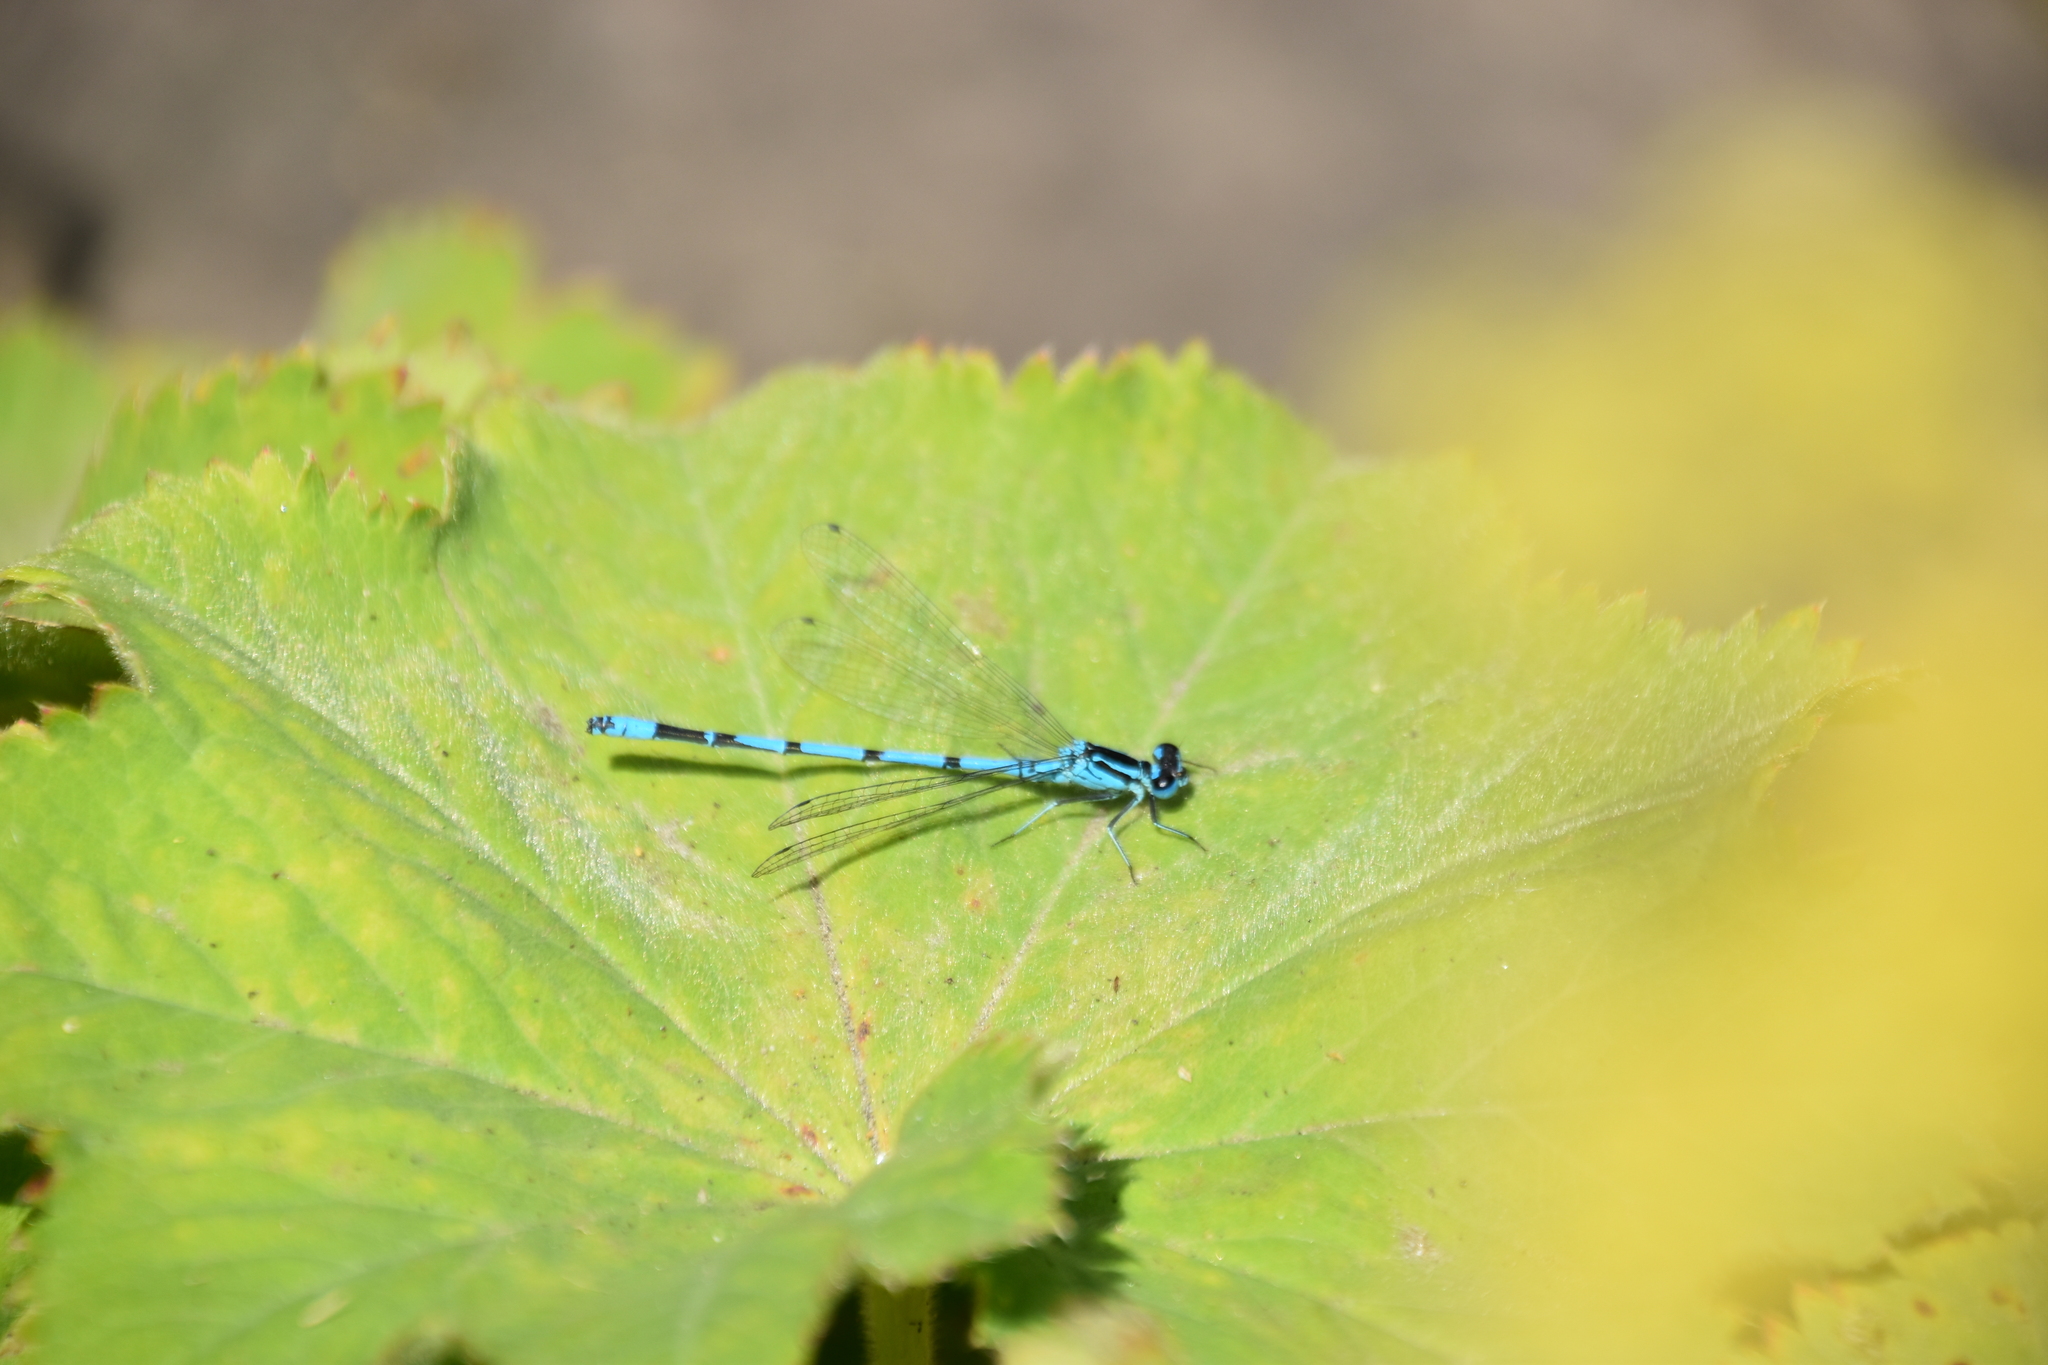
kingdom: Animalia
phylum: Arthropoda
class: Insecta
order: Odonata
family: Coenagrionidae
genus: Coenagrion
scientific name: Coenagrion puella
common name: Azure damselfly
